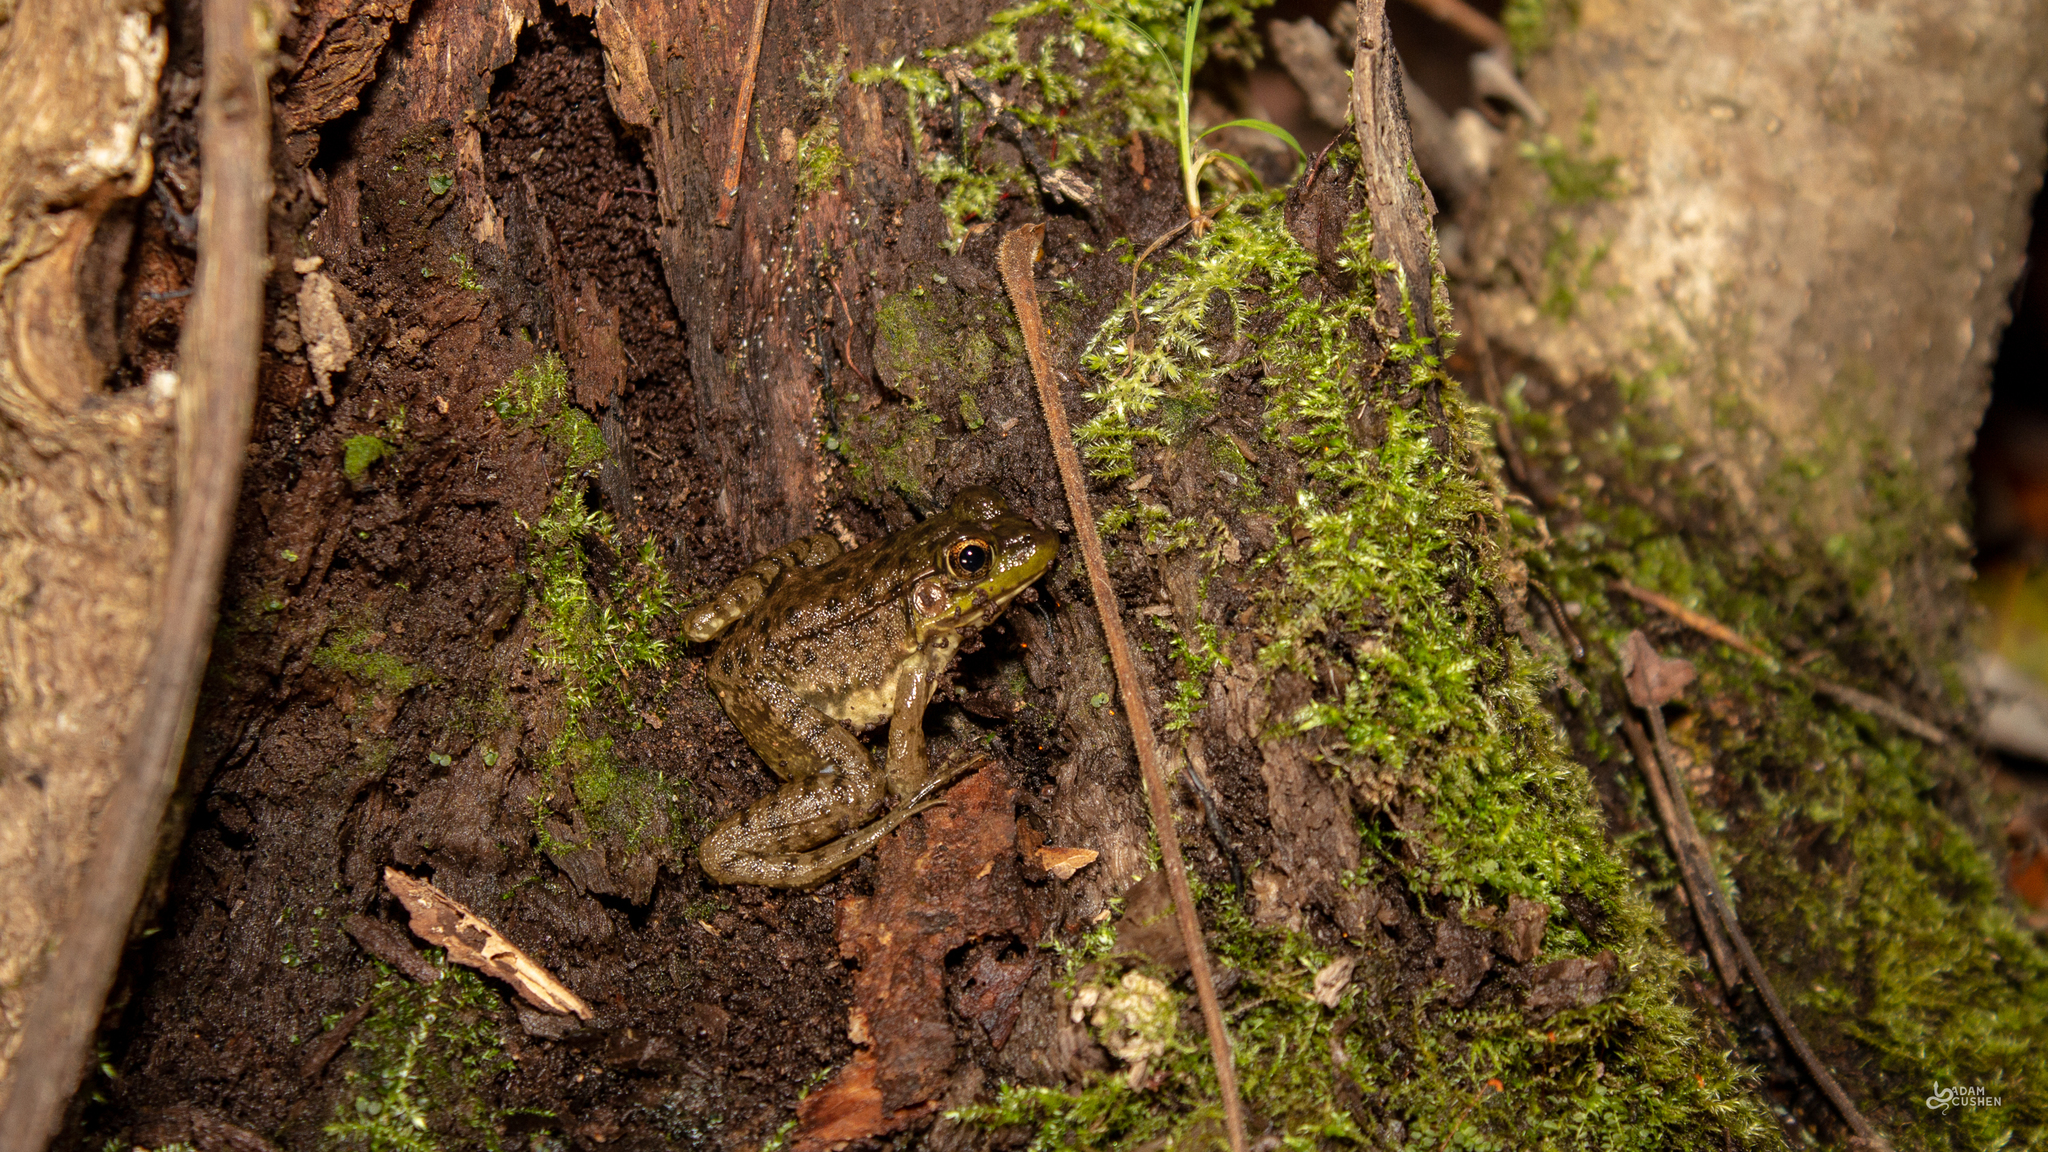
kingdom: Animalia
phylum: Chordata
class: Amphibia
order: Anura
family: Ranidae
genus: Lithobates
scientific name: Lithobates clamitans
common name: Green frog
